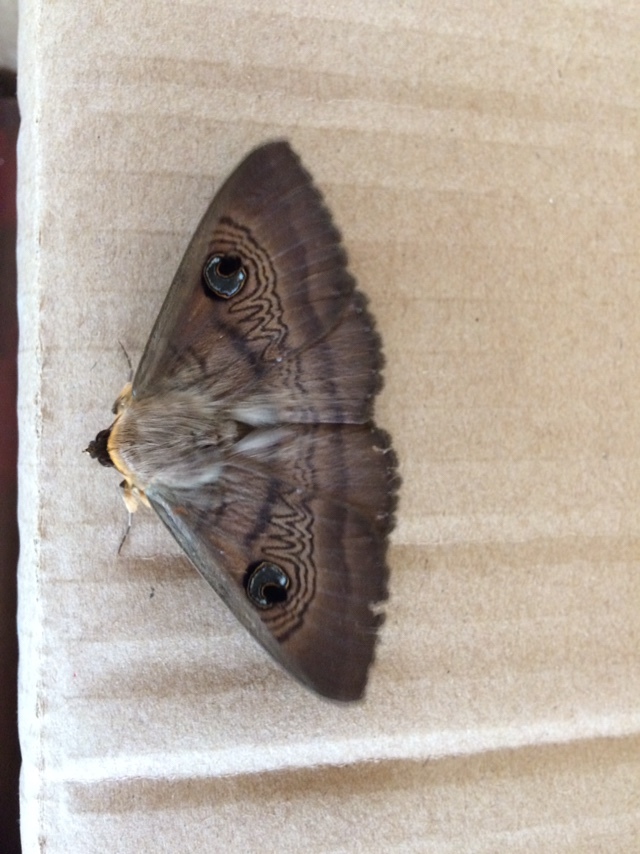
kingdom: Animalia
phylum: Arthropoda
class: Insecta
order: Lepidoptera
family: Erebidae
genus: Dasypodia
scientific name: Dasypodia selenophora
